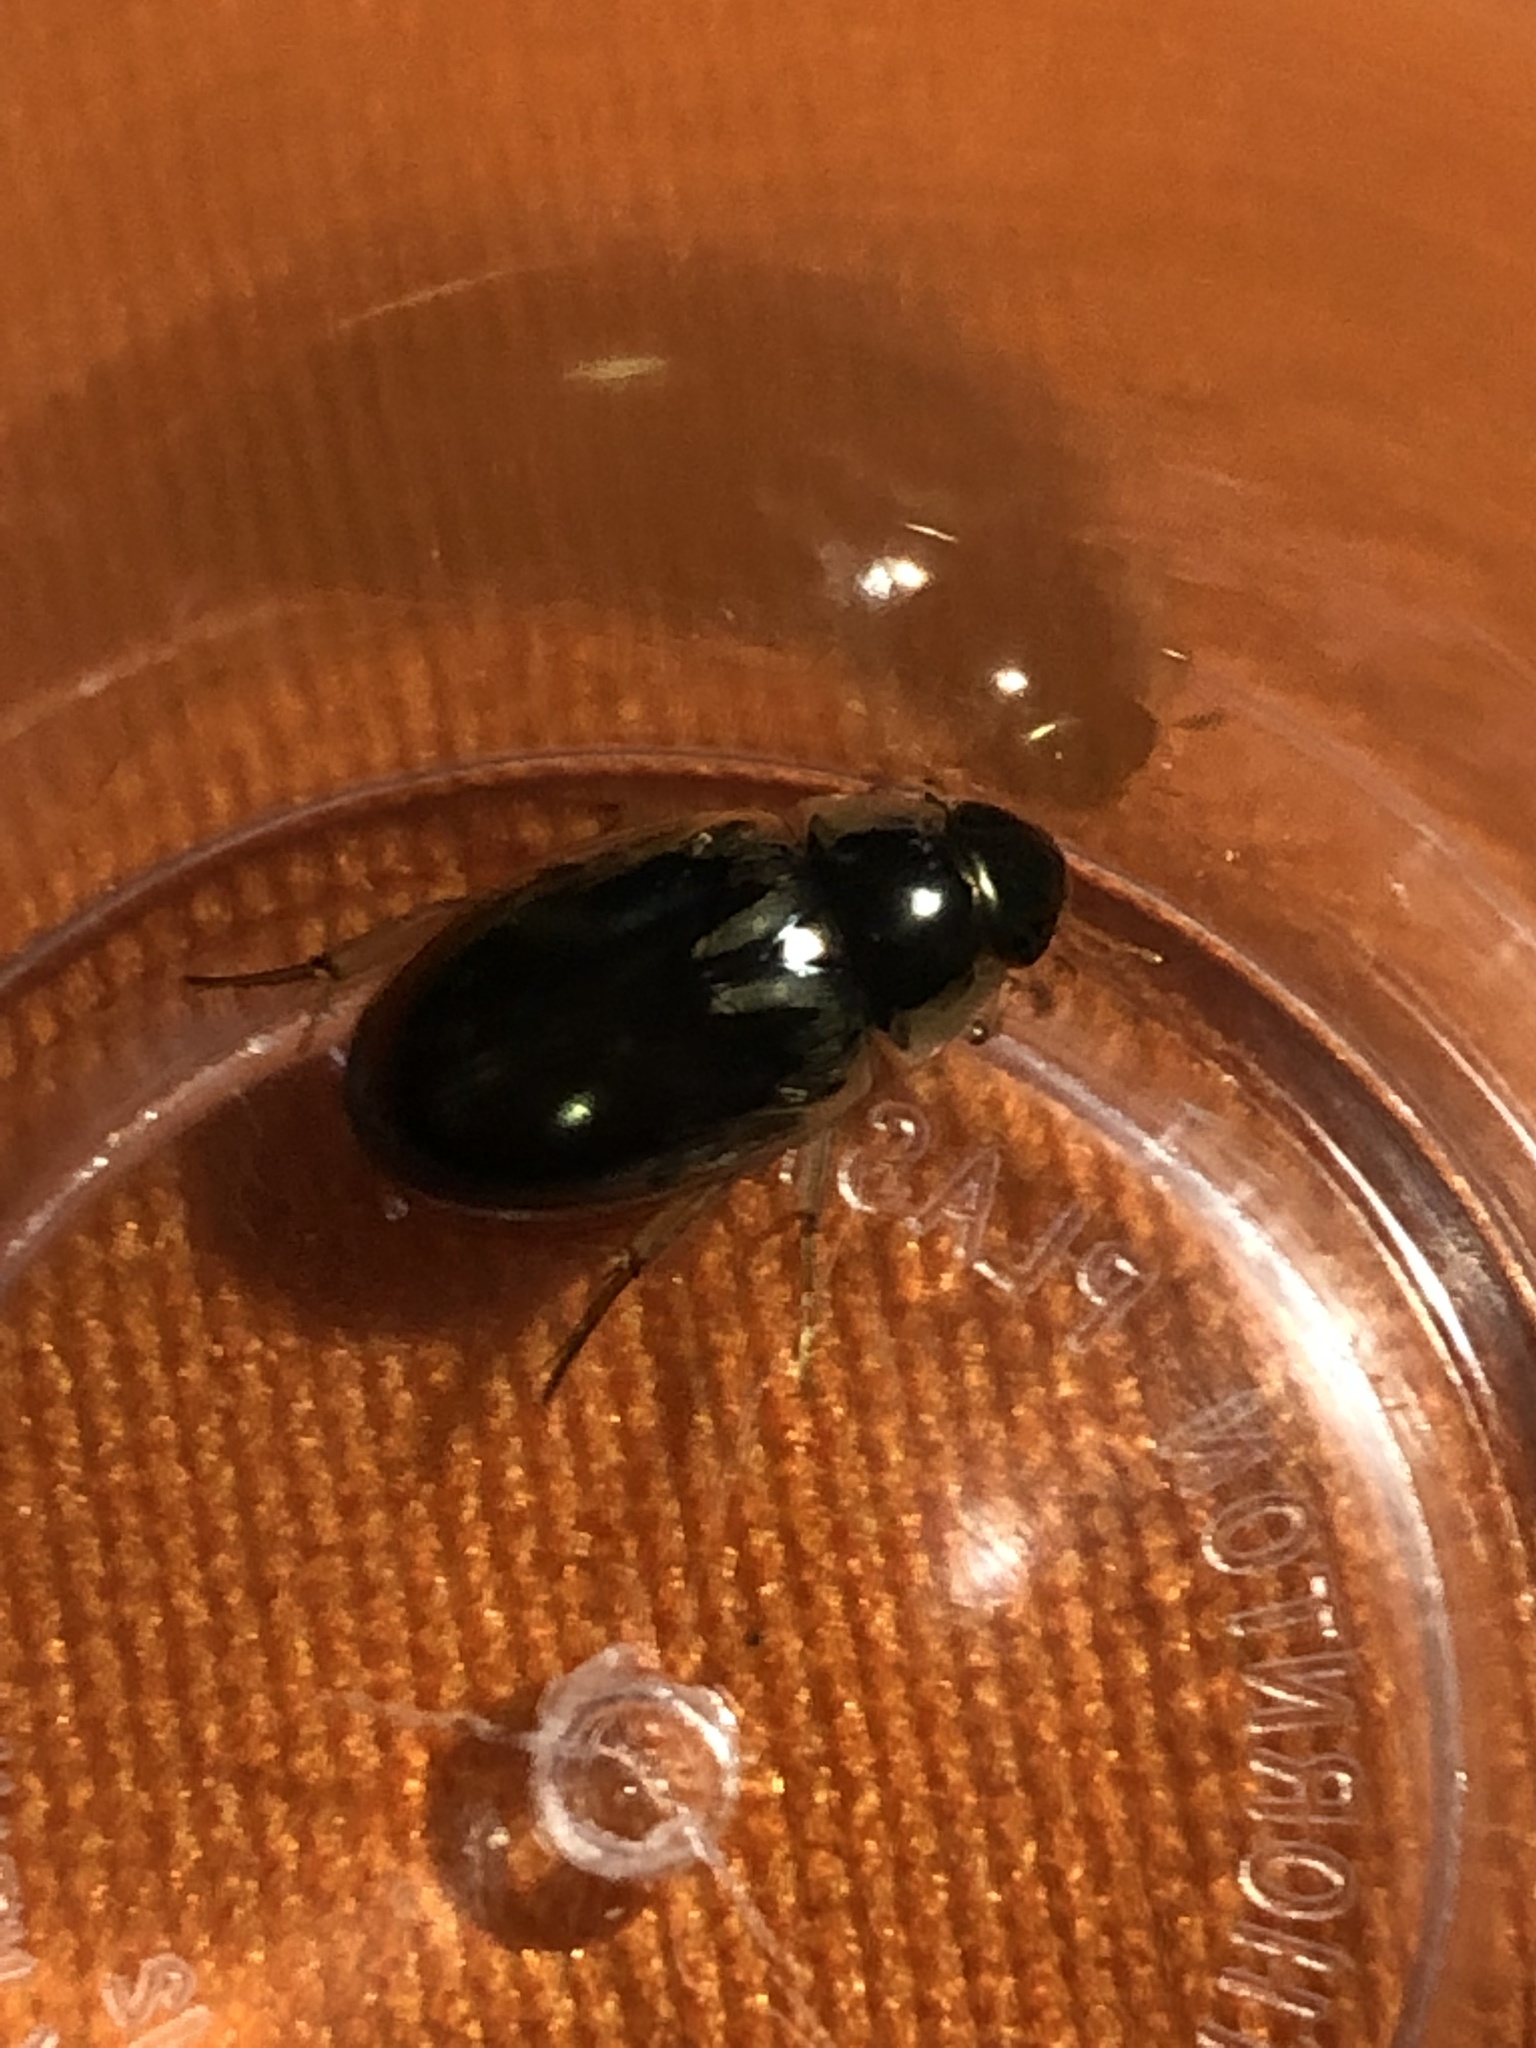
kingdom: Animalia
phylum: Arthropoda
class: Insecta
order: Coleoptera
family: Hydrophilidae
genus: Tropisternus
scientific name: Tropisternus lateralis
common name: Lateral-banded water scavenger beetle
